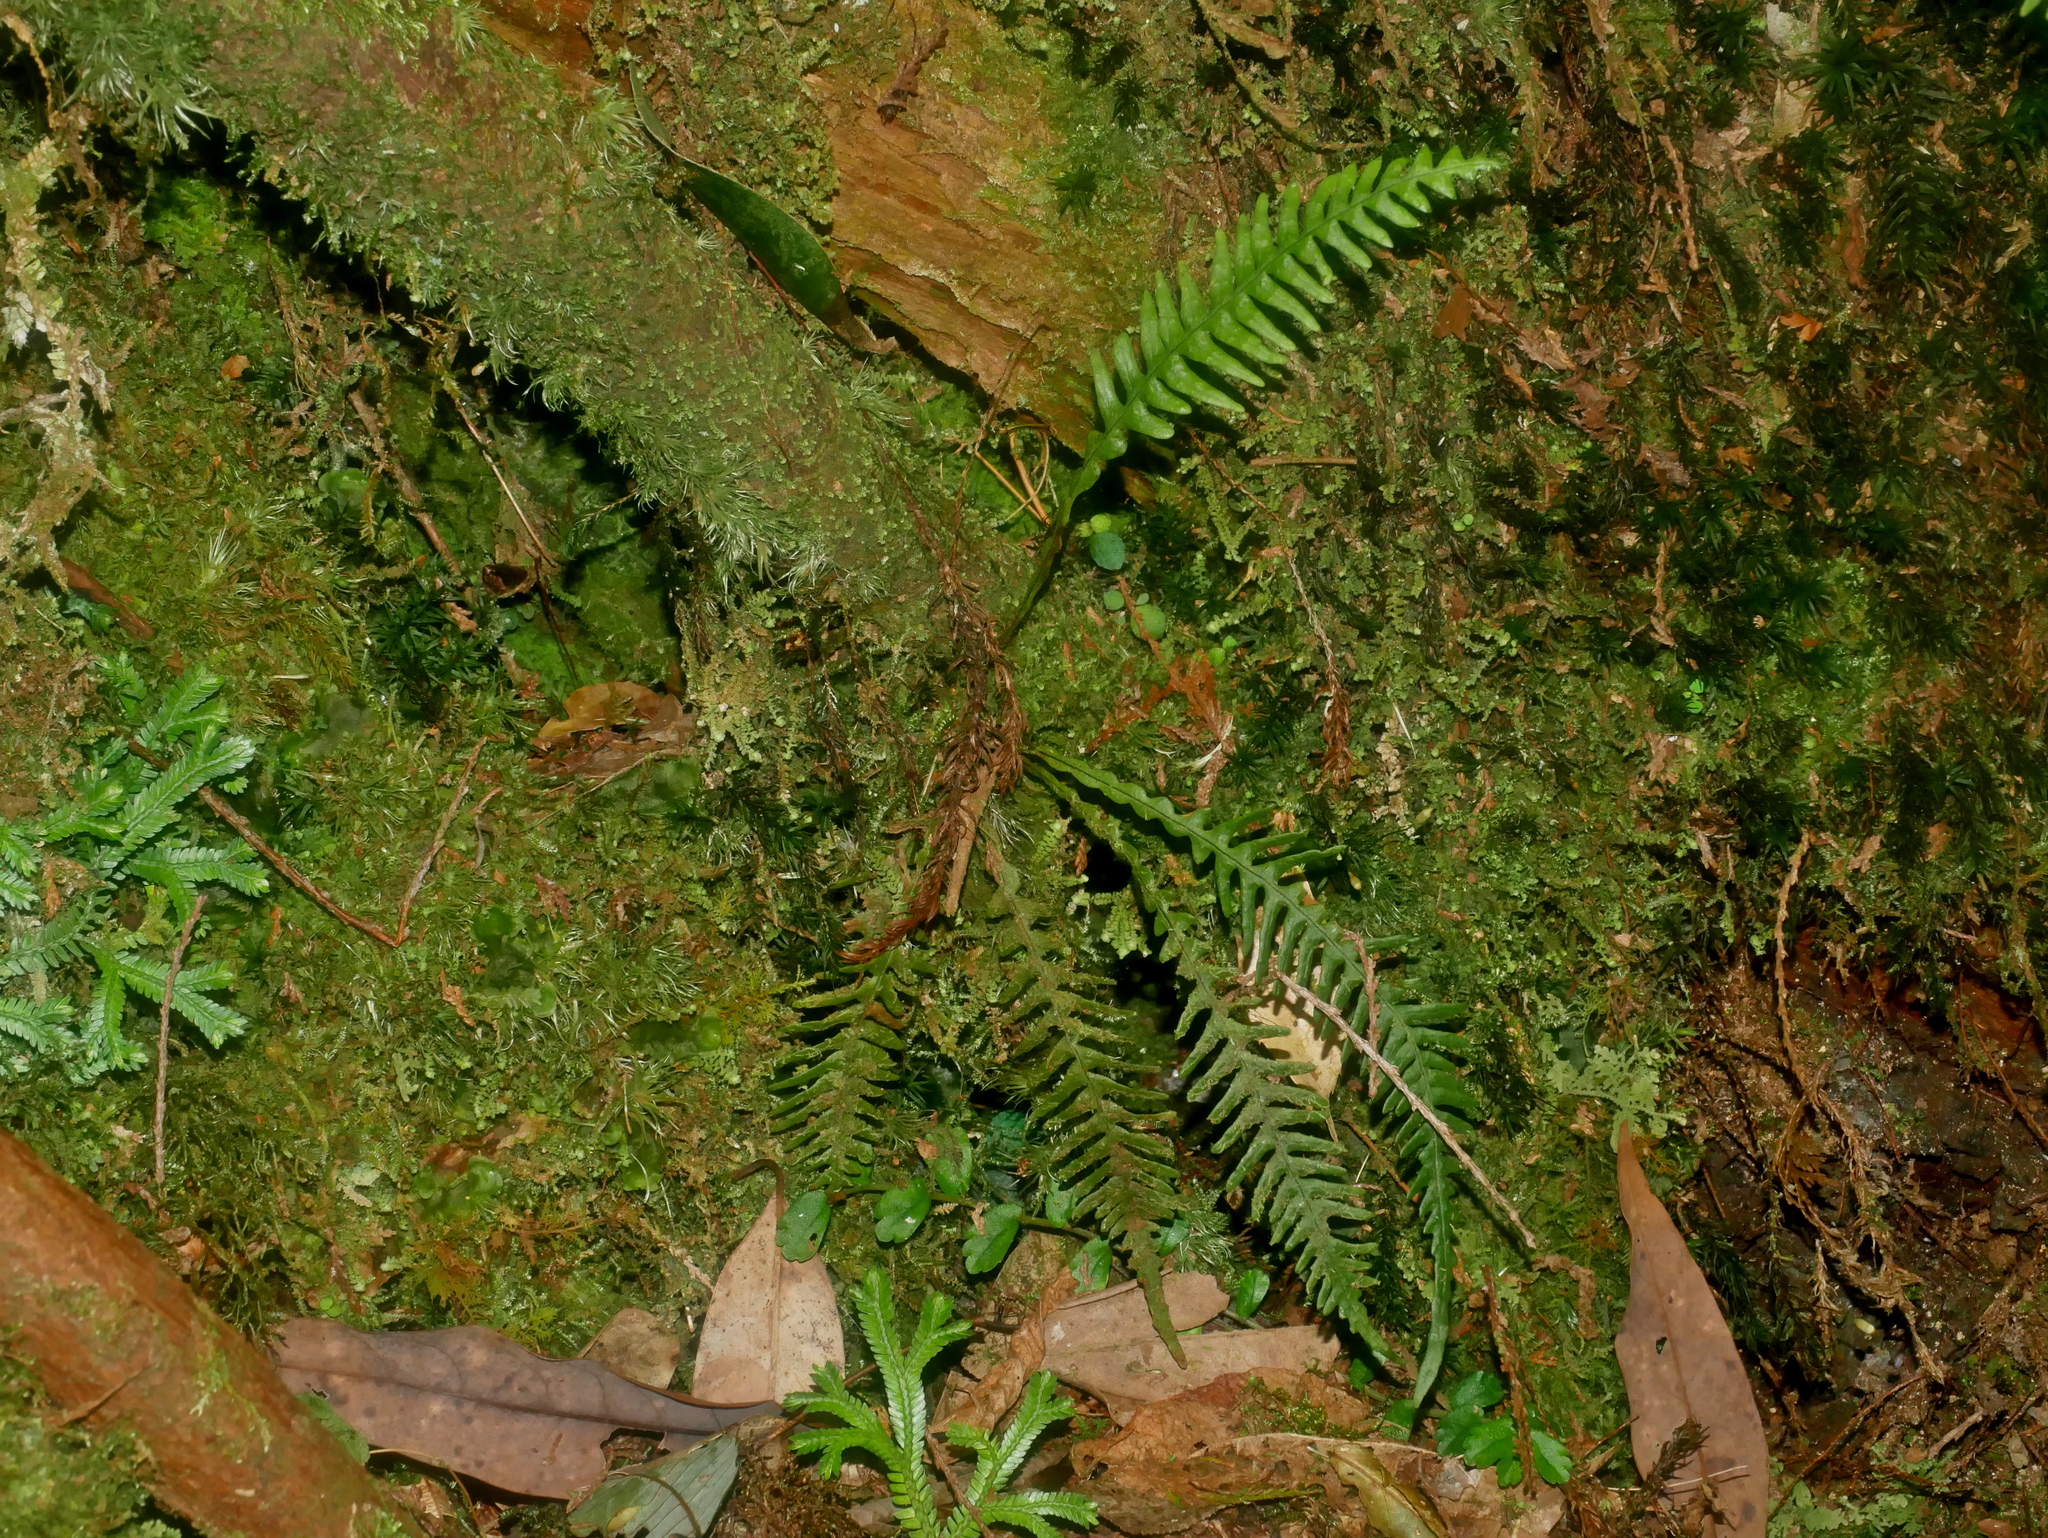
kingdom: Plantae
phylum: Tracheophyta
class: Polypodiopsida
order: Polypodiales
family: Polypodiaceae
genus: Oreogrammitis
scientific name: Oreogrammitis curtisii
